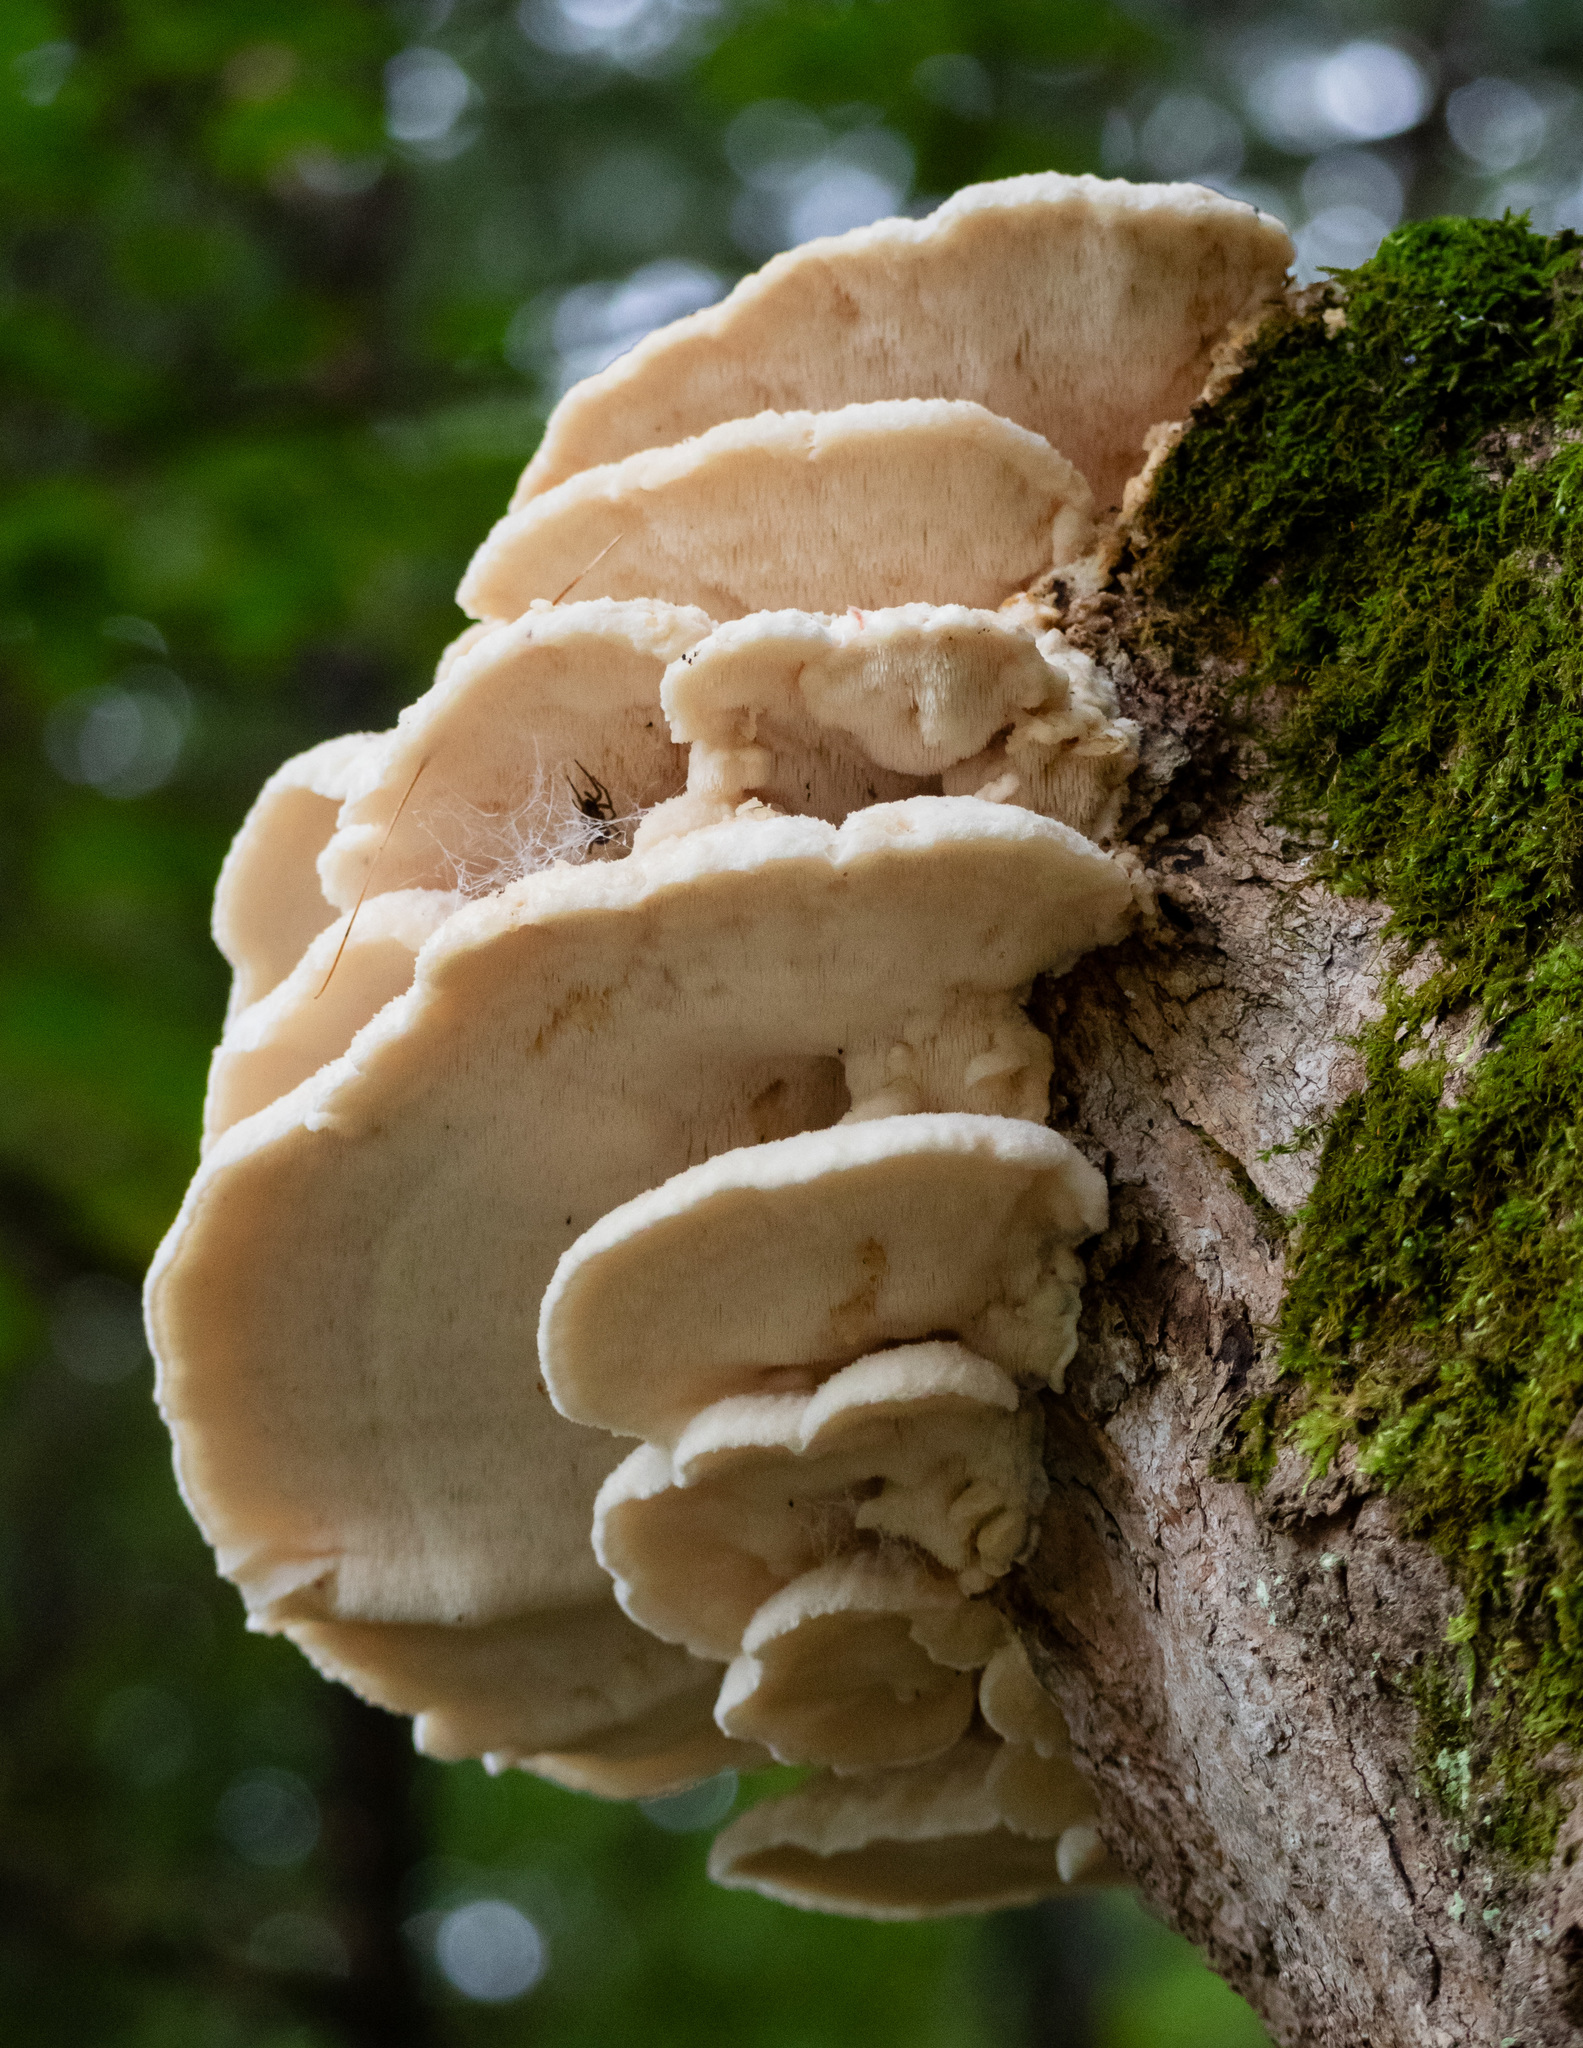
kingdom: Fungi
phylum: Basidiomycota
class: Agaricomycetes
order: Polyporales
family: Meruliaceae
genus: Climacodon
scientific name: Climacodon septentrionalis
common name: Northern tooth
